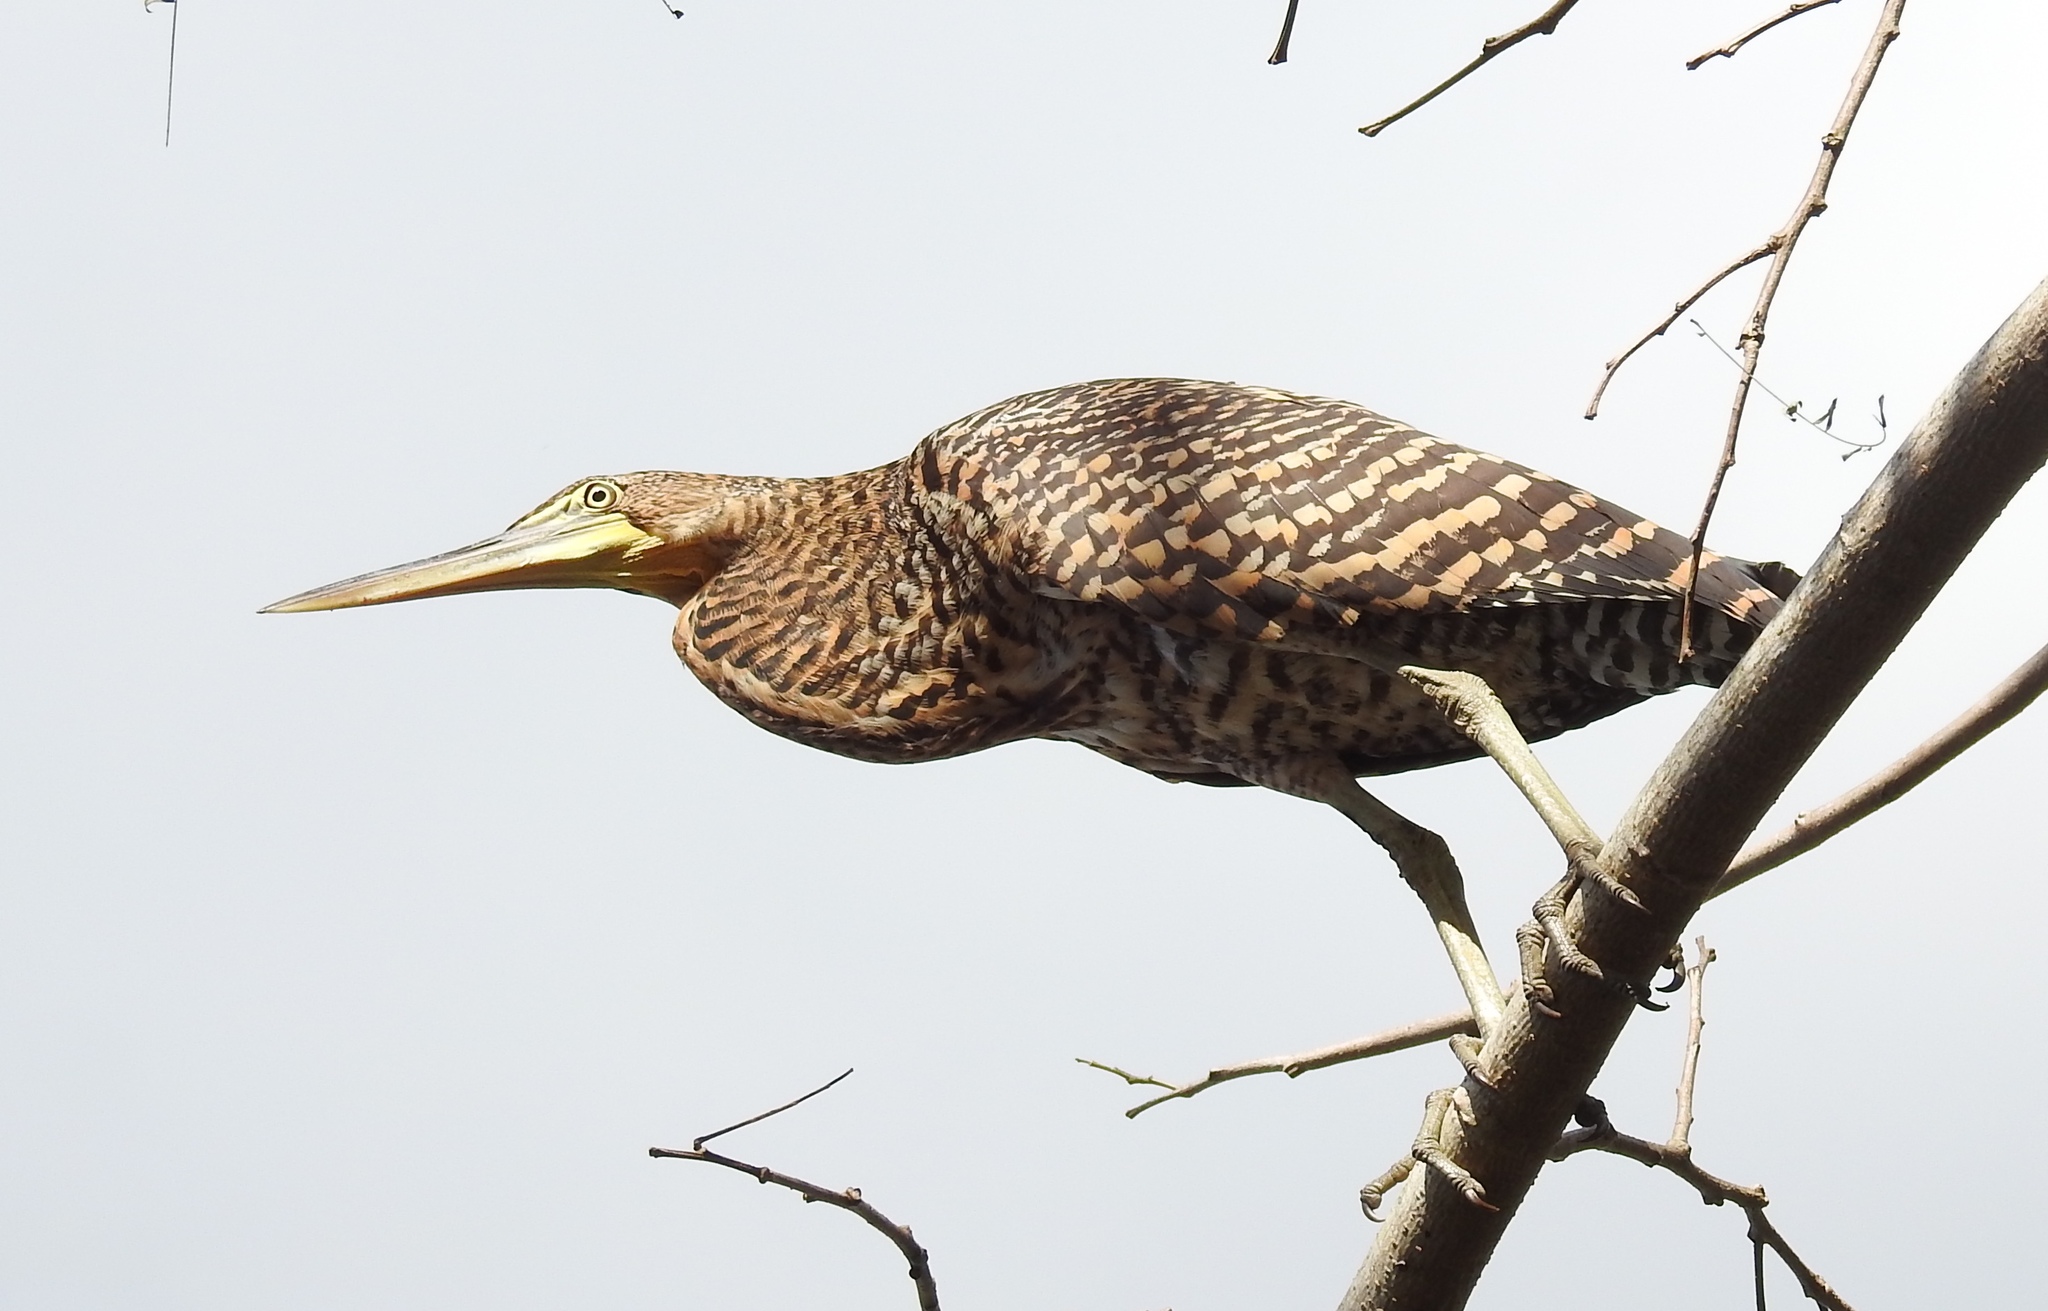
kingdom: Animalia
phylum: Chordata
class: Aves
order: Pelecaniformes
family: Ardeidae
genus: Tigrisoma
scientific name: Tigrisoma mexicanum
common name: Bare-throated tiger-heron
